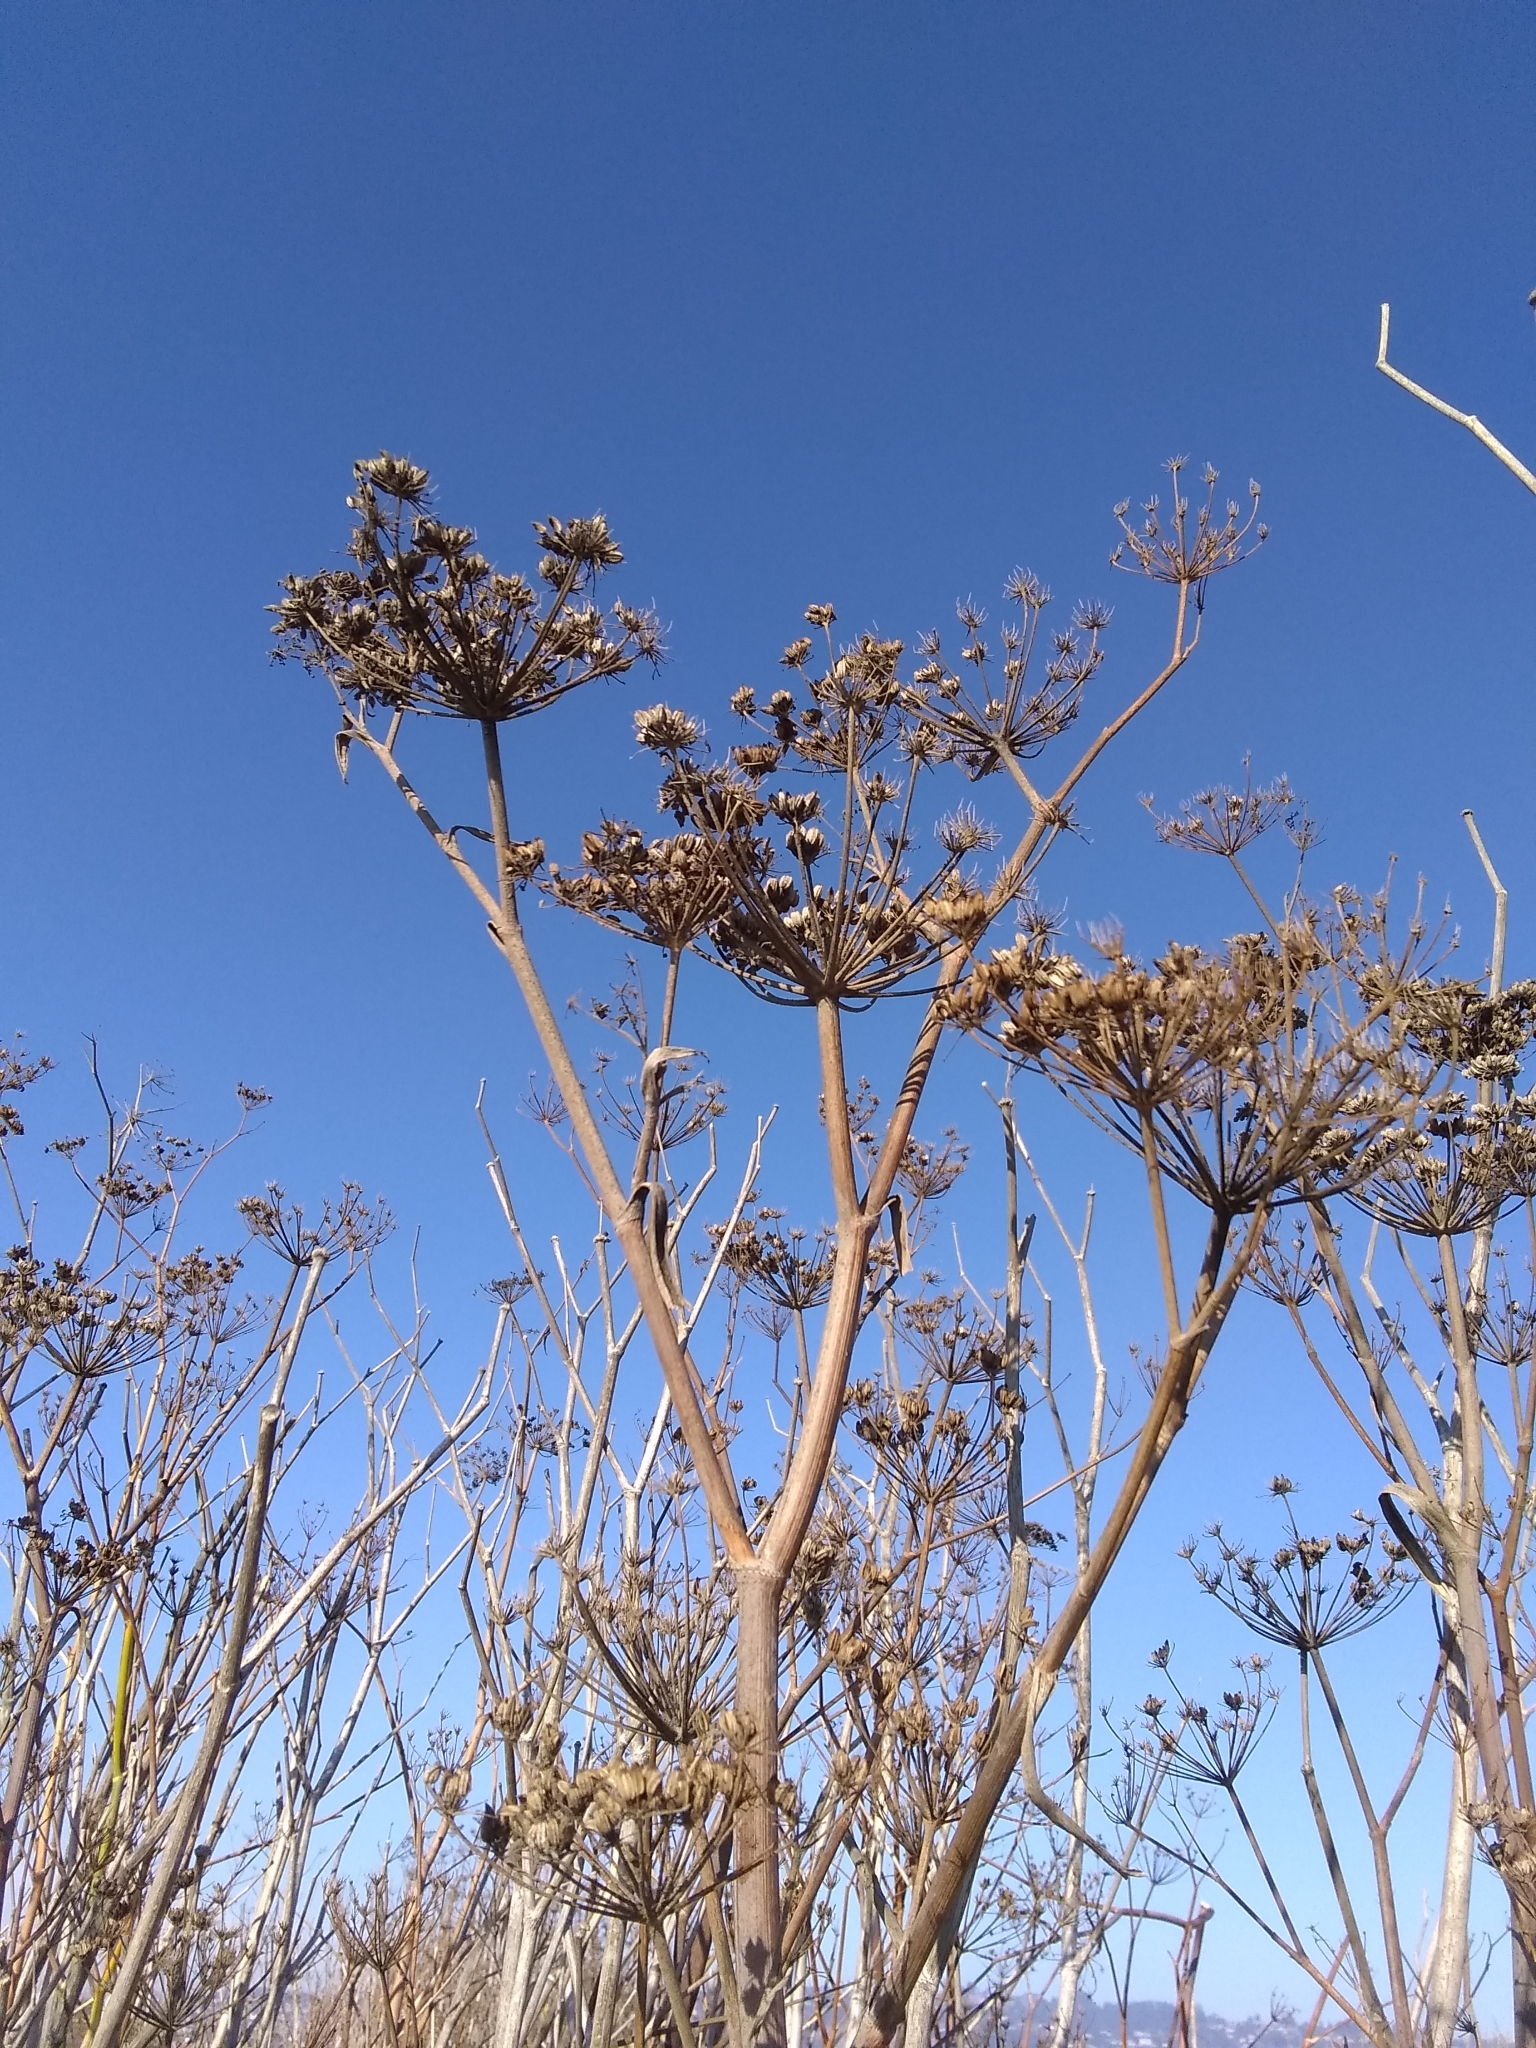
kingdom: Plantae
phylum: Tracheophyta
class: Magnoliopsida
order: Apiales
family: Apiaceae
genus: Foeniculum
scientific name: Foeniculum vulgare
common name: Fennel
